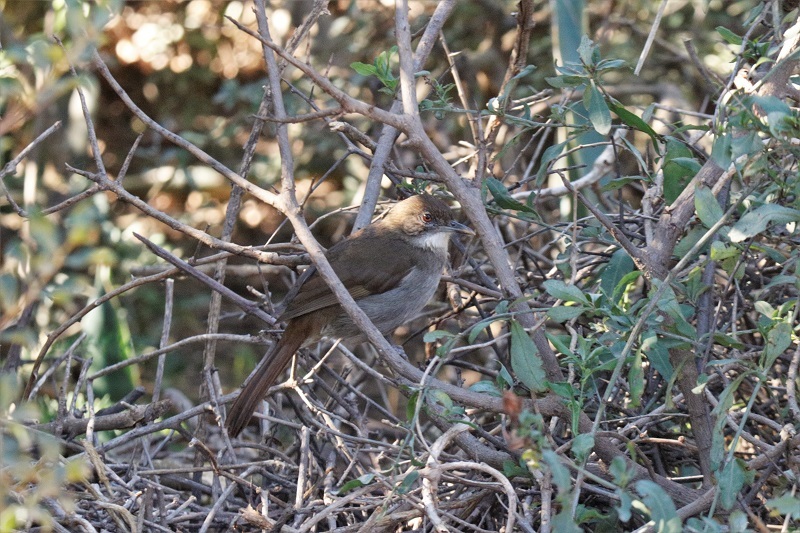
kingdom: Animalia
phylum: Chordata
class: Aves
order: Passeriformes
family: Pycnonotidae
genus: Phyllastrephus
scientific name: Phyllastrephus terrestris
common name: Terrestrial brownbul
